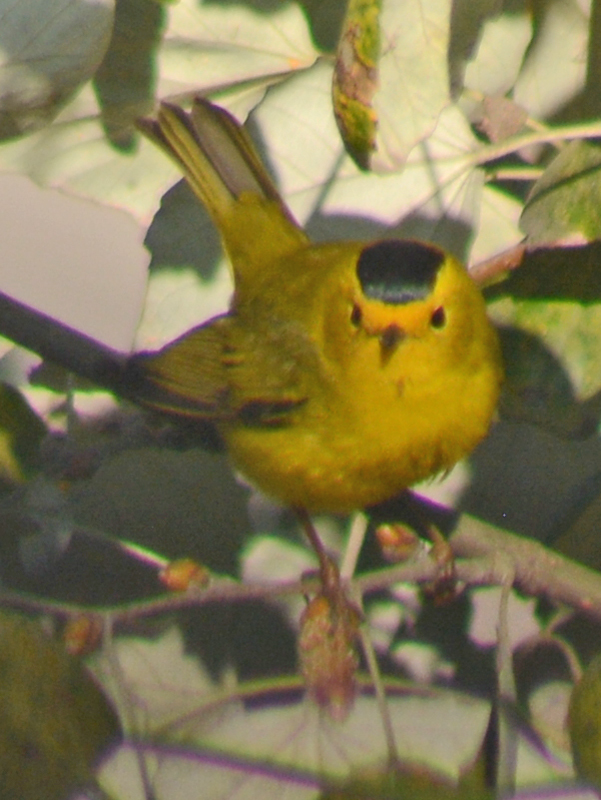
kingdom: Animalia
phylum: Chordata
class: Aves
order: Passeriformes
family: Parulidae
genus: Cardellina
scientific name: Cardellina pusilla
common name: Wilson's warbler
